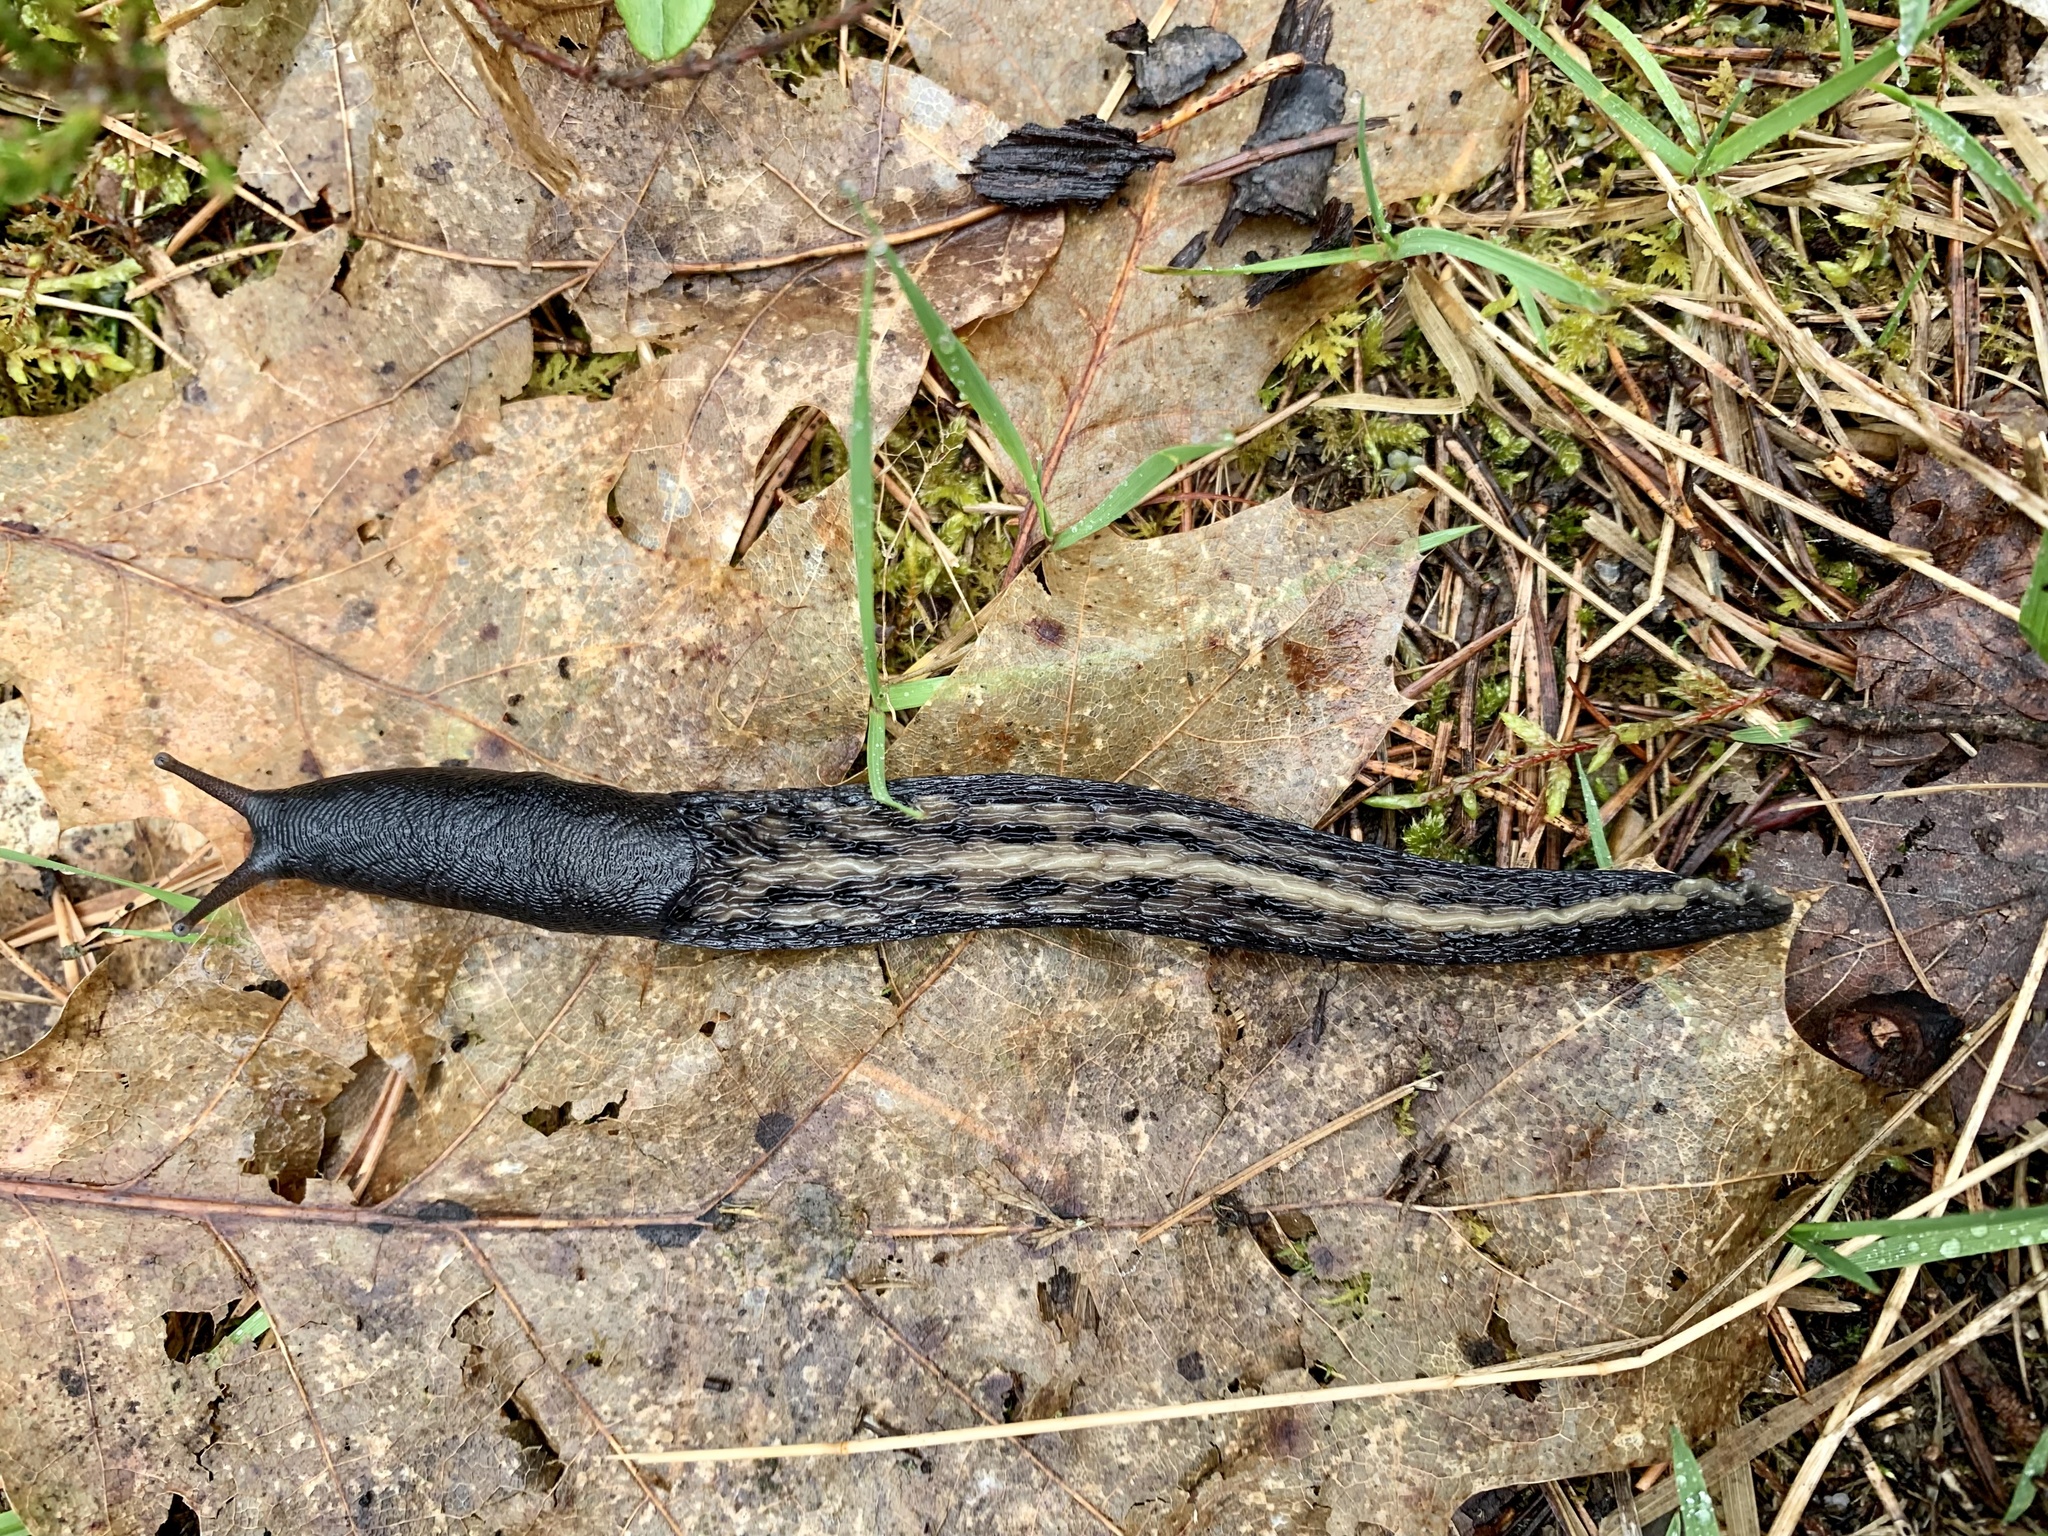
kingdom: Animalia
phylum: Mollusca
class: Gastropoda
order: Stylommatophora
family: Limacidae
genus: Limax
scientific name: Limax cinereoniger
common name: Ash-black slug
